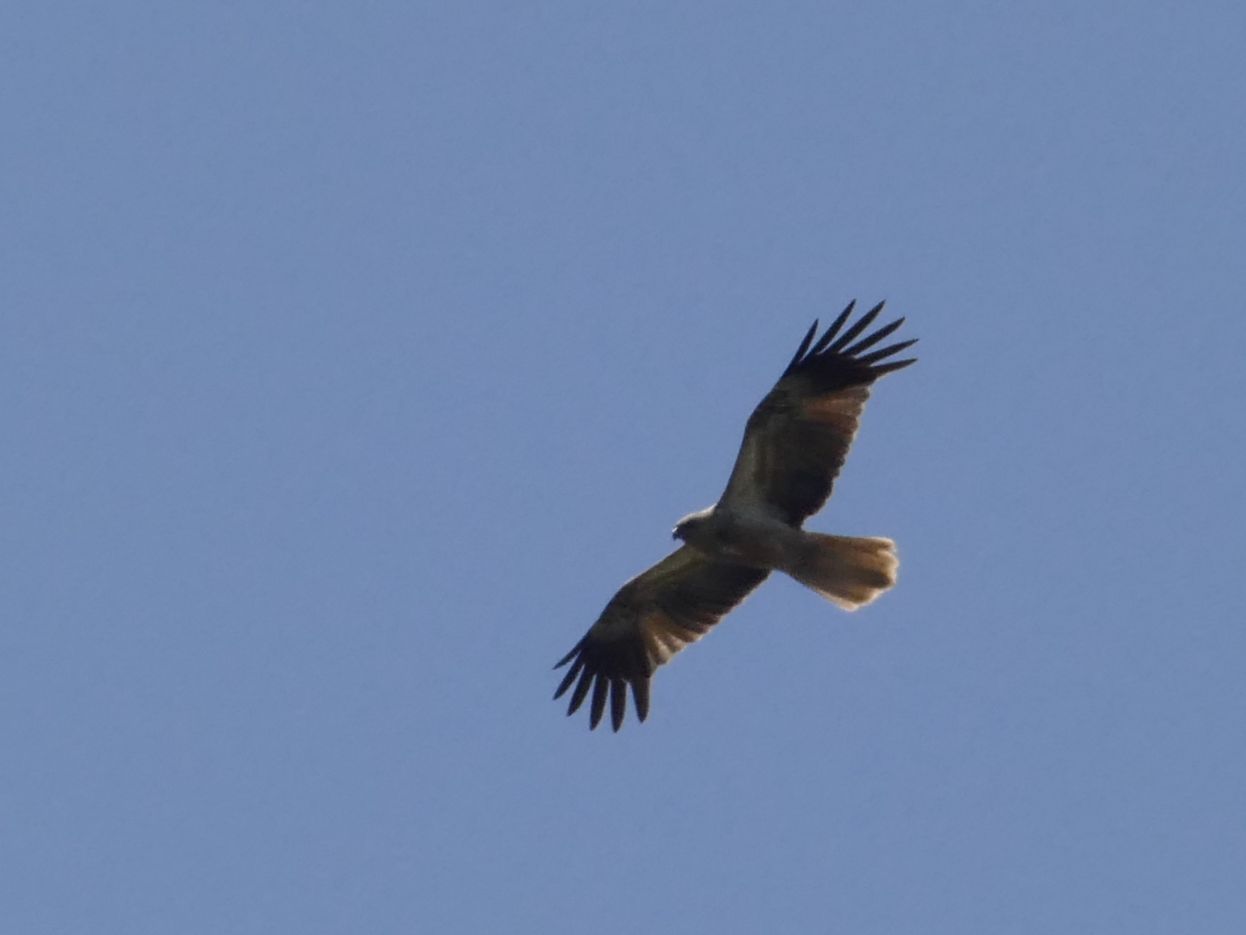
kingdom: Animalia
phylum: Chordata
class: Aves
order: Accipitriformes
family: Accipitridae
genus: Haliastur
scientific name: Haliastur sphenurus
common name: Whistling kite
